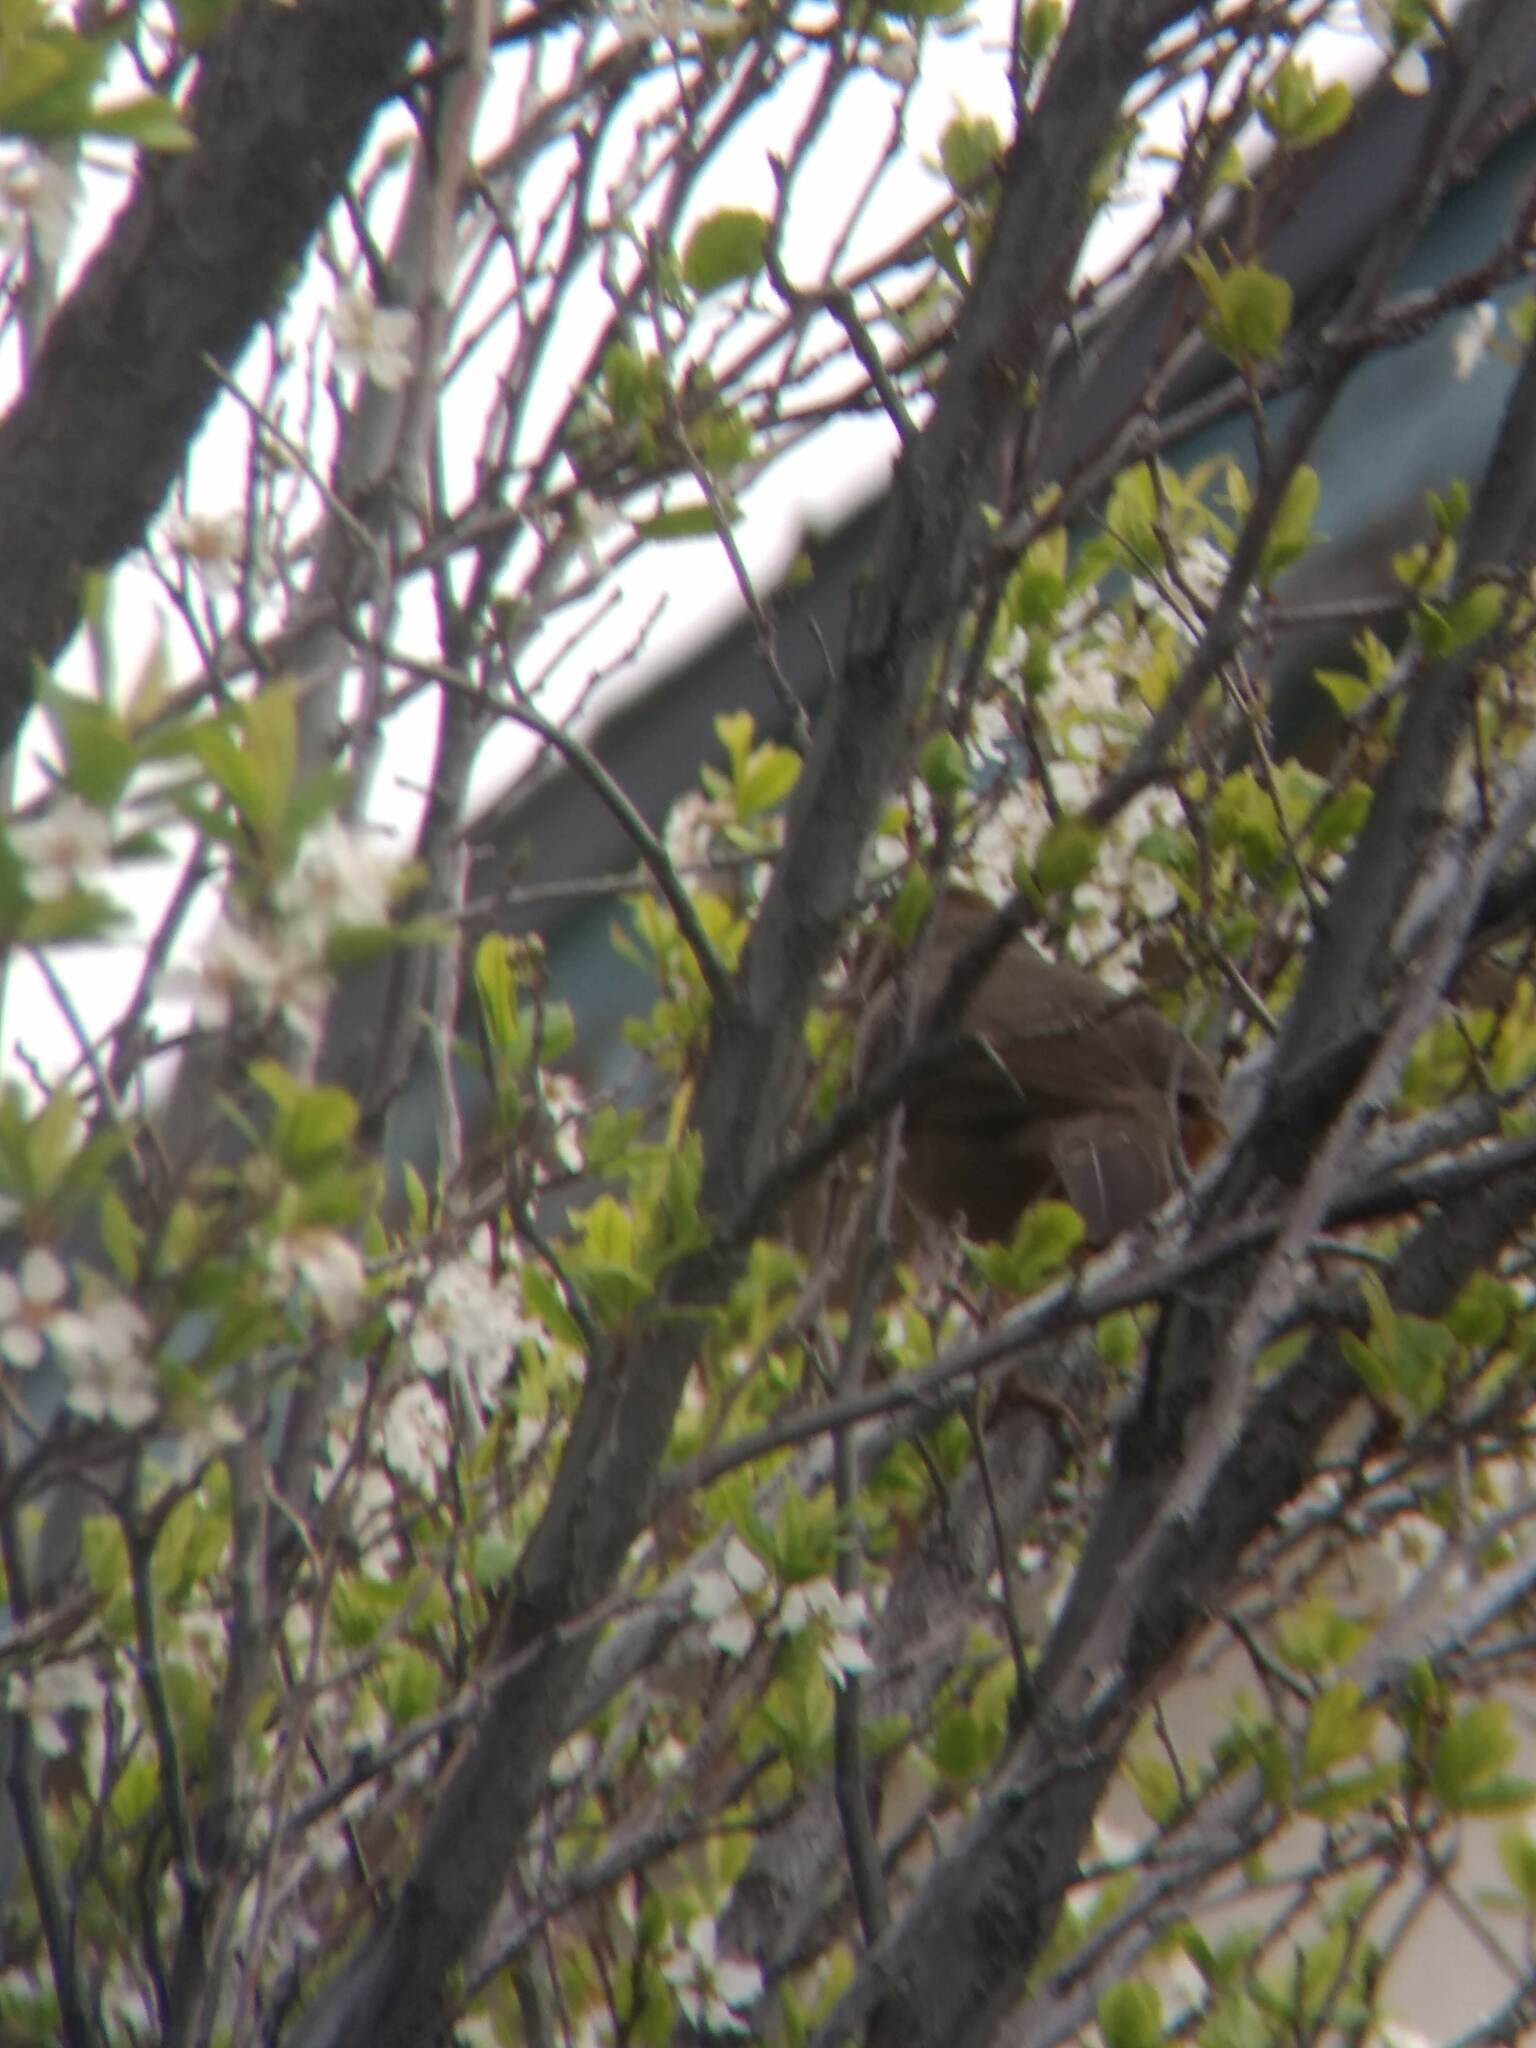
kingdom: Animalia
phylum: Chordata
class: Aves
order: Passeriformes
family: Passerellidae
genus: Melozone
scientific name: Melozone crissalis
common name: California towhee
